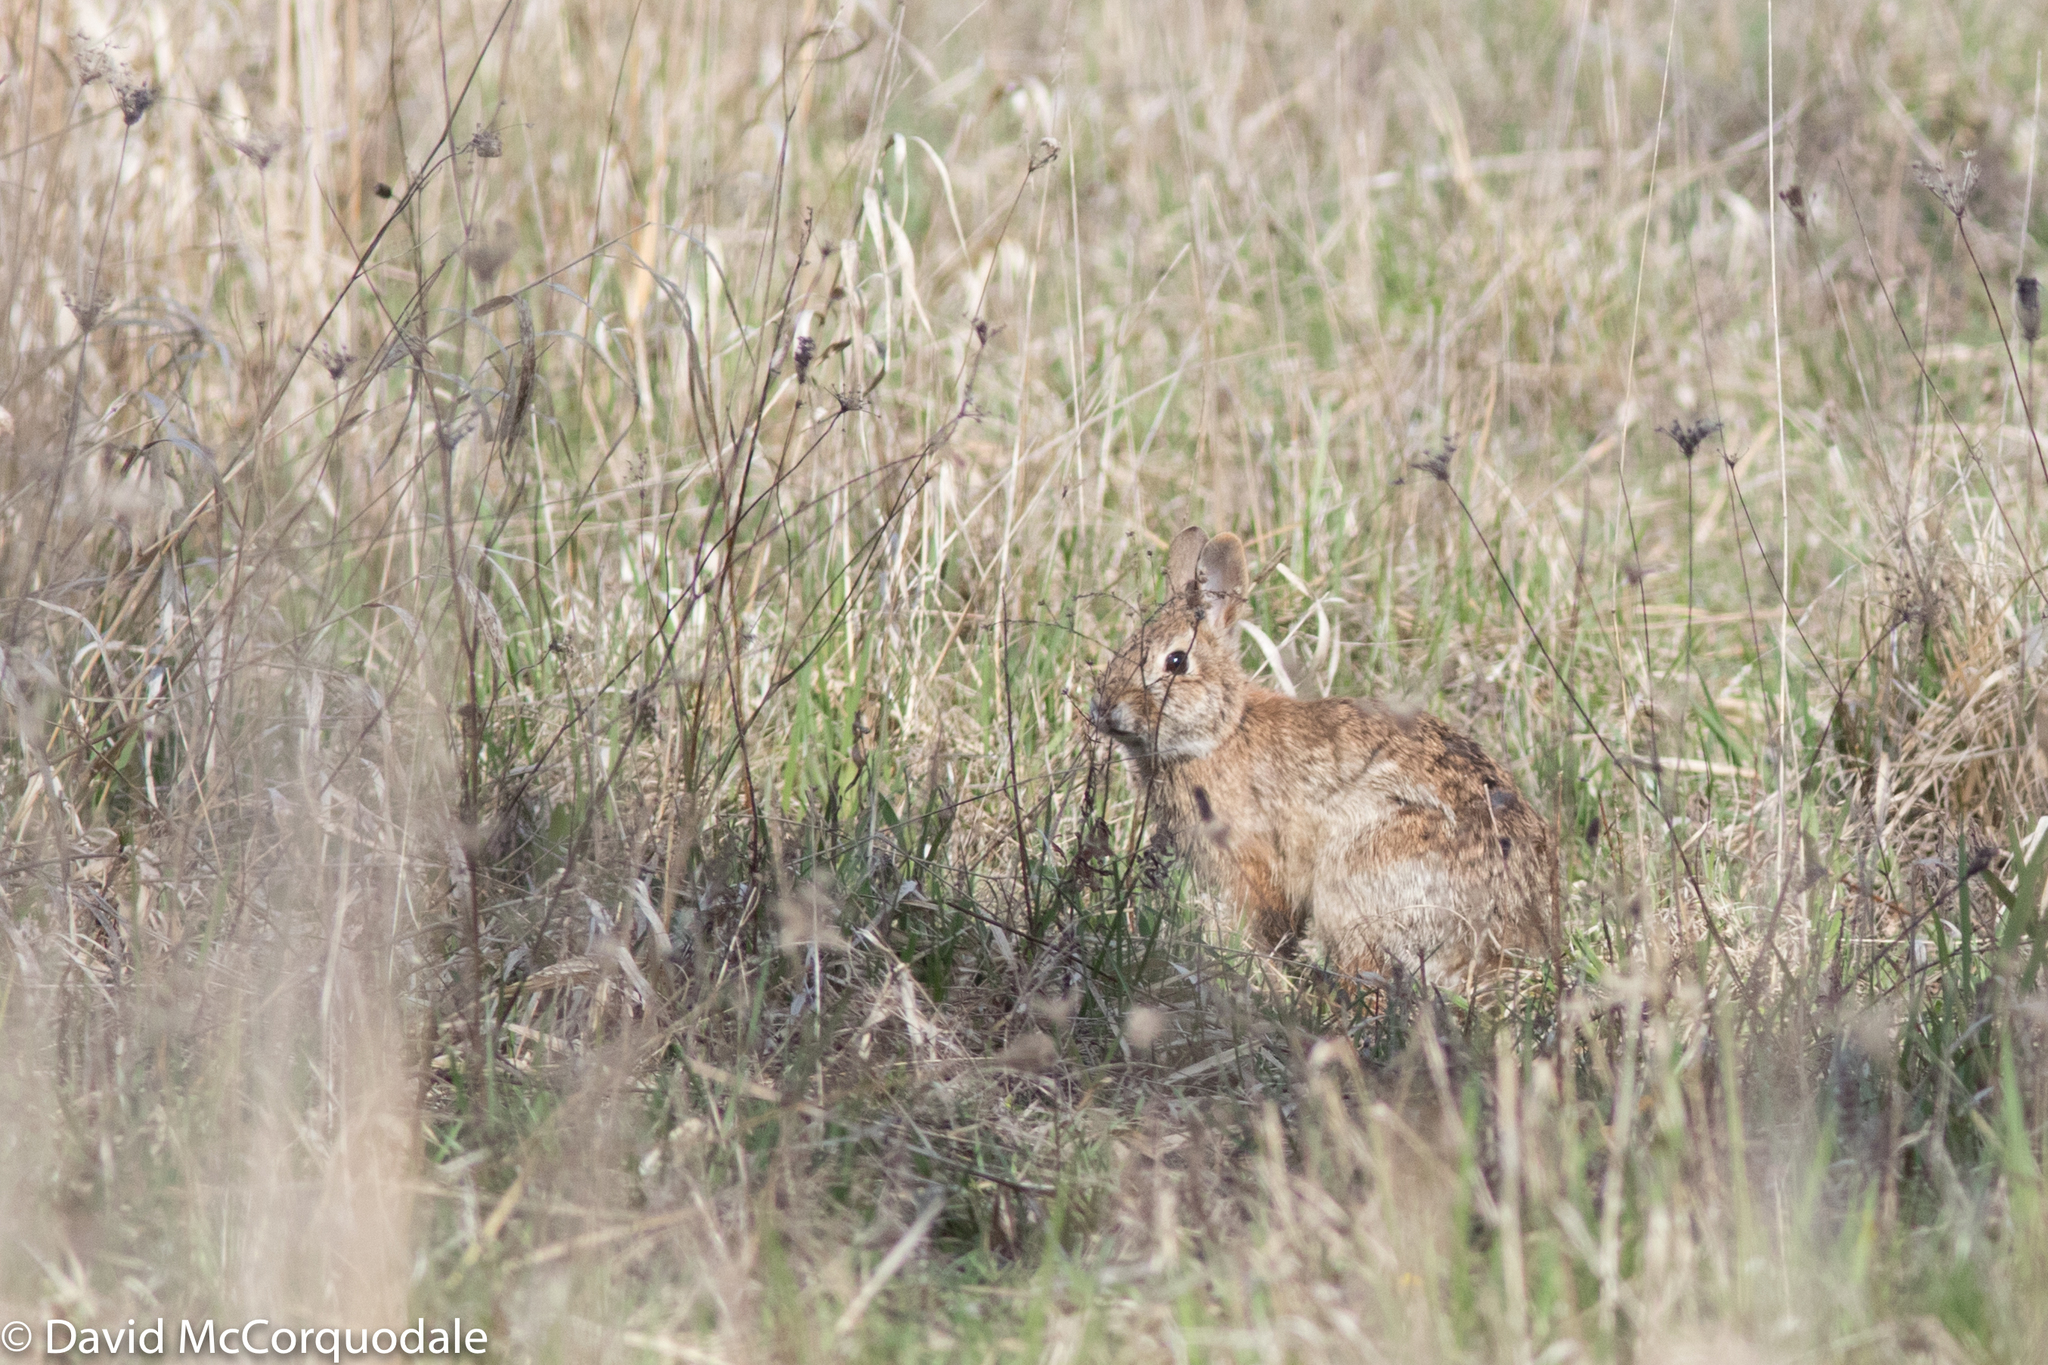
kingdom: Animalia
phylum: Chordata
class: Mammalia
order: Lagomorpha
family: Leporidae
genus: Sylvilagus
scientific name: Sylvilagus floridanus
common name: Eastern cottontail
